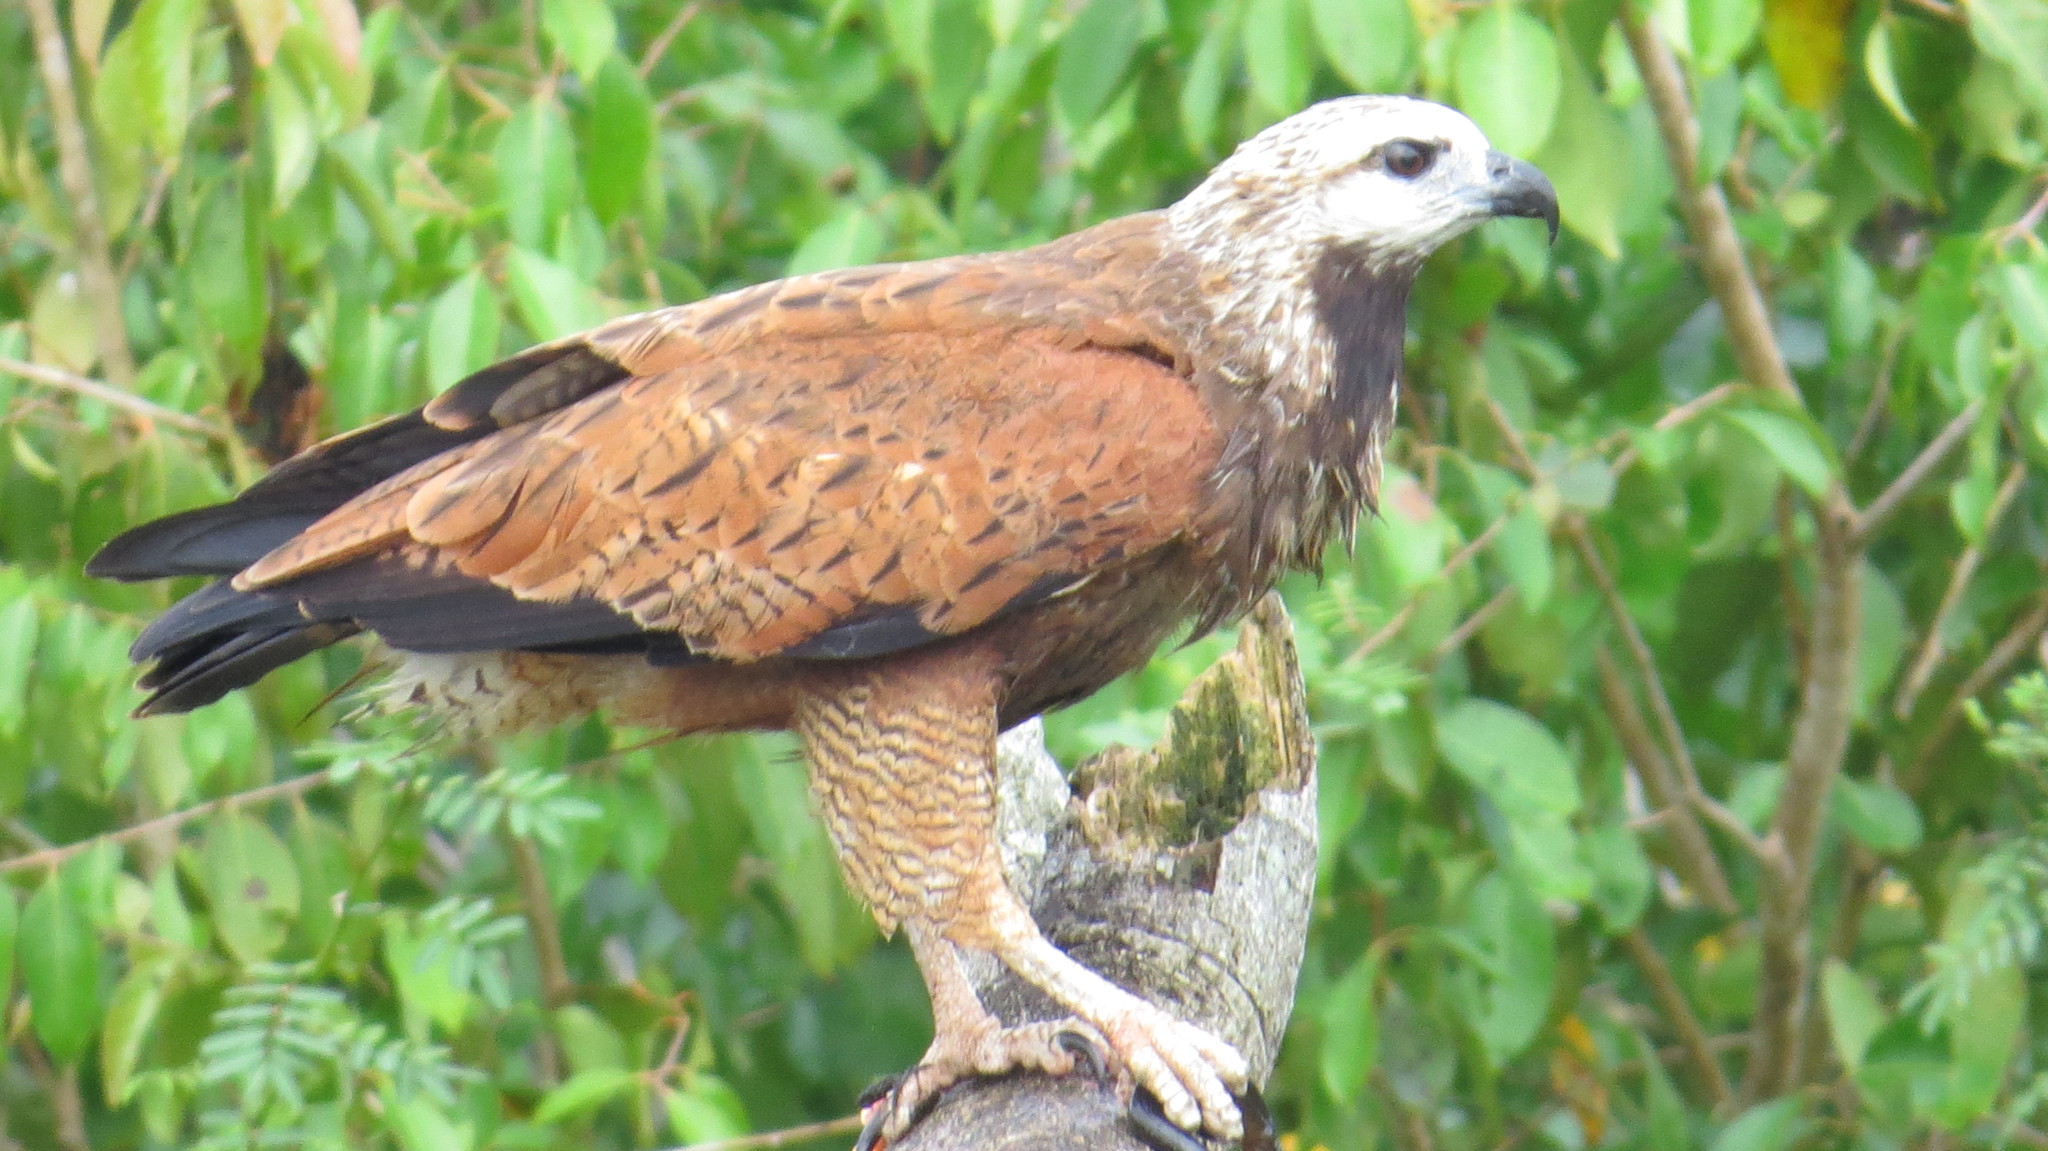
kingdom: Animalia
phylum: Chordata
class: Aves
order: Accipitriformes
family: Accipitridae
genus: Busarellus
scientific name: Busarellus nigricollis
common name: Black-collared hawk
